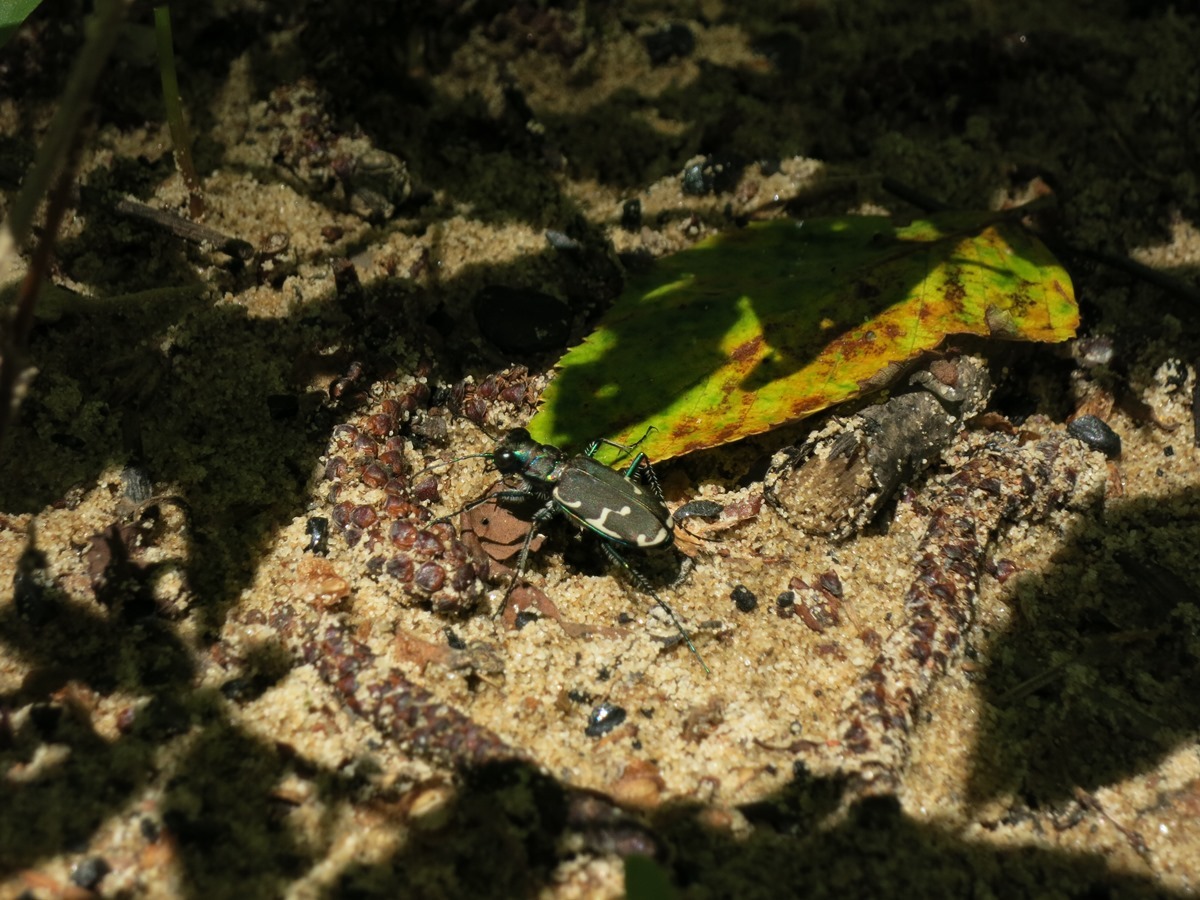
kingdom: Animalia
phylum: Arthropoda
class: Insecta
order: Coleoptera
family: Carabidae
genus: Cicindela
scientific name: Cicindela ancocisconensis
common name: Appalachian tiger beetle
